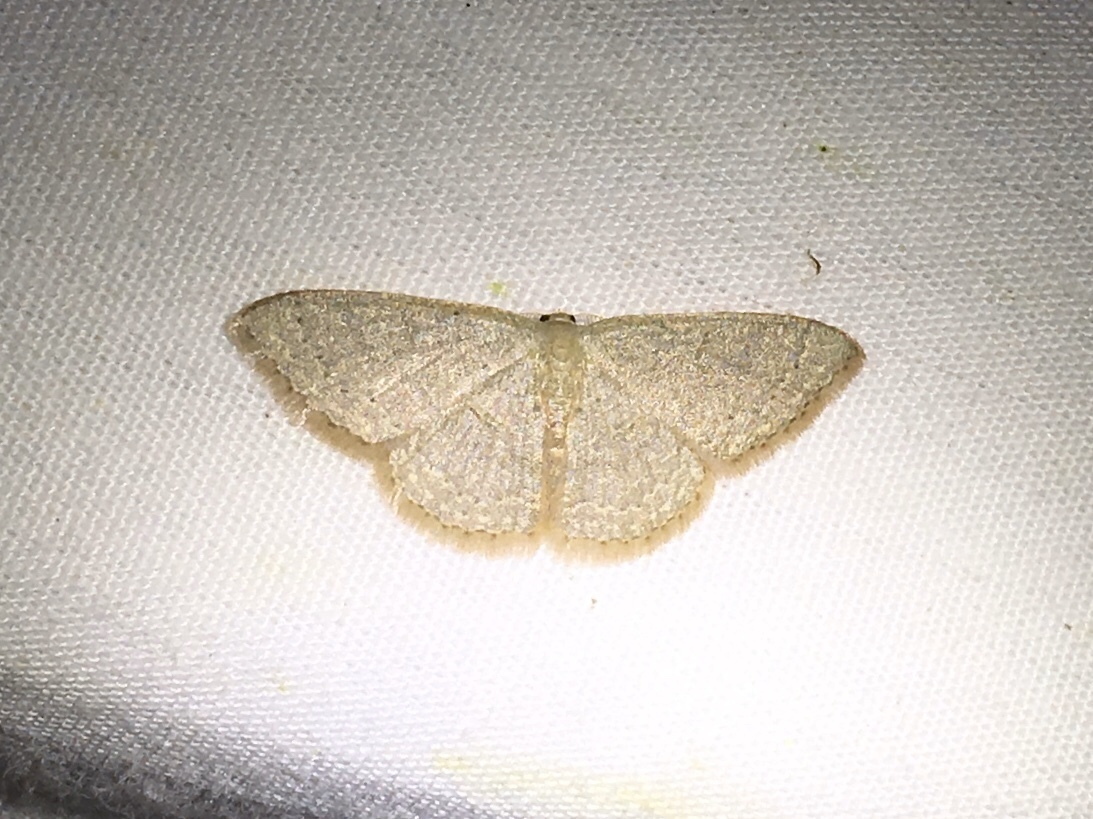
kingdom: Animalia
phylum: Arthropoda
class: Insecta
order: Lepidoptera
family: Geometridae
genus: Pleuroprucha
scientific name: Pleuroprucha insulsaria
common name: Common tan wave
